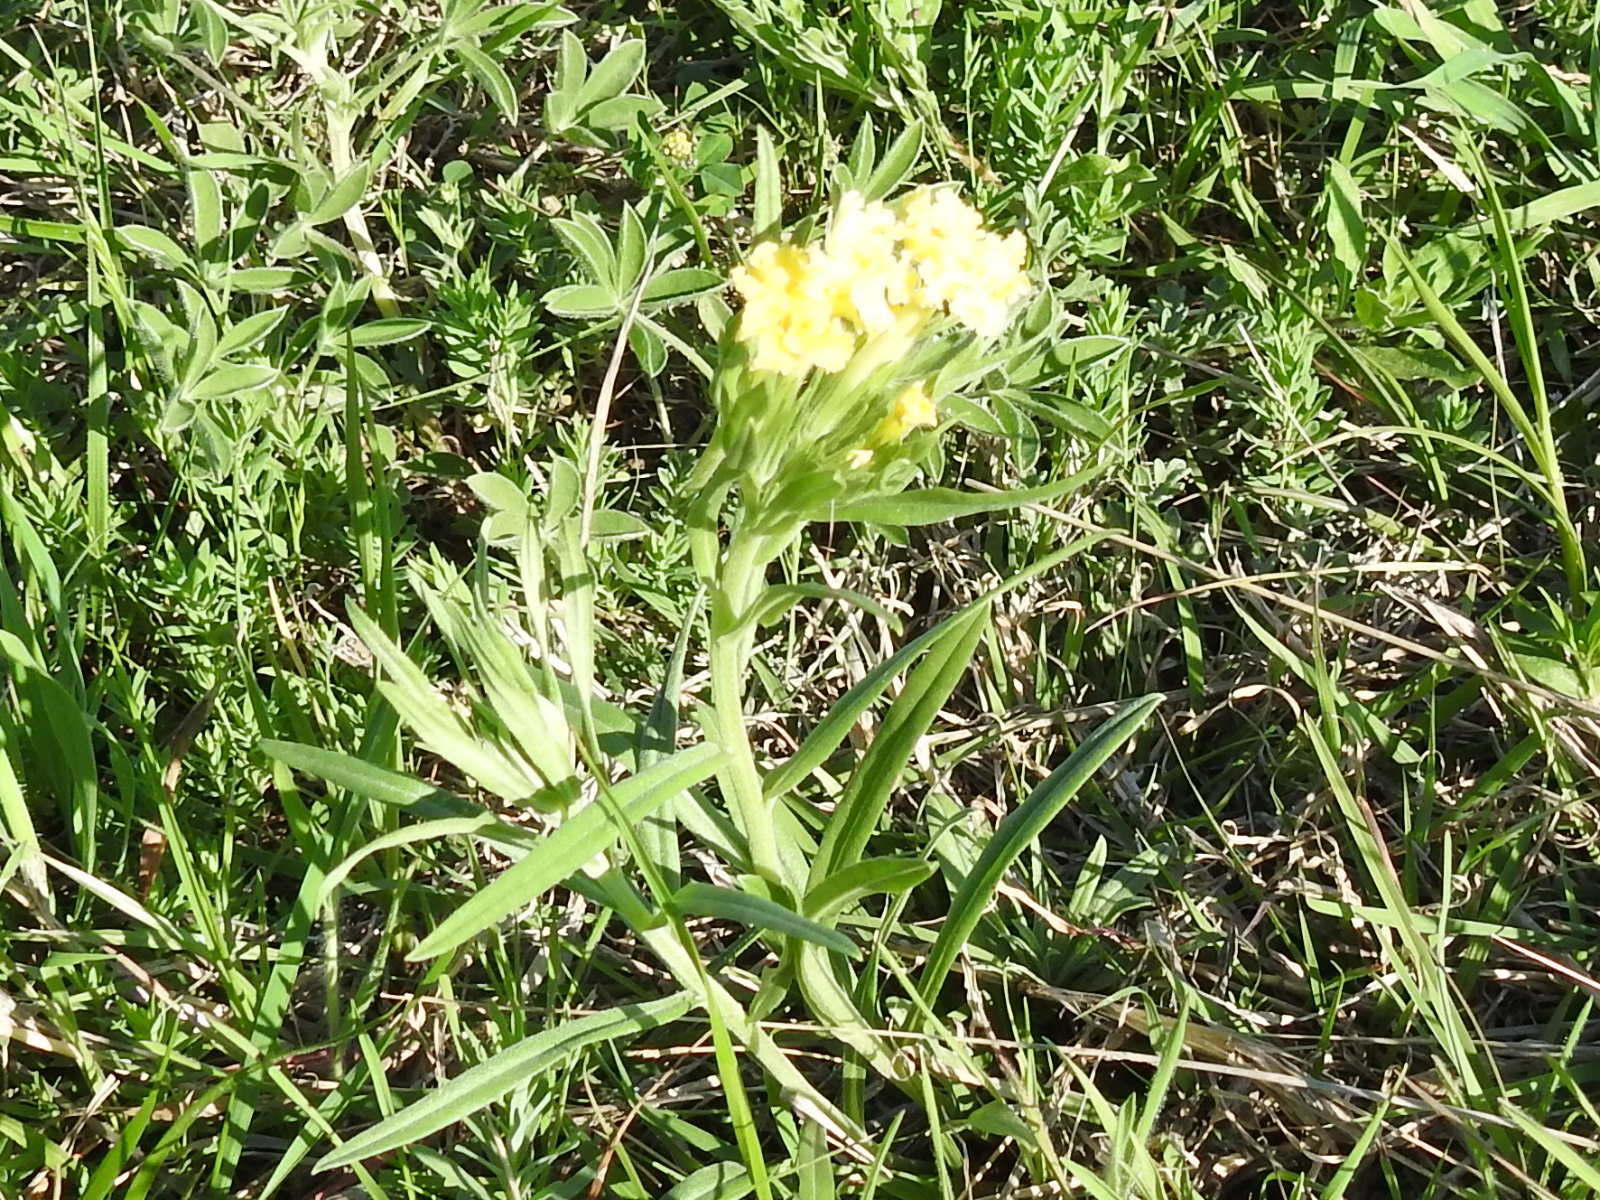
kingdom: Plantae
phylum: Tracheophyta
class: Magnoliopsida
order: Boraginales
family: Boraginaceae
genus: Lithospermum
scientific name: Lithospermum incisum
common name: Fringed gromwell
